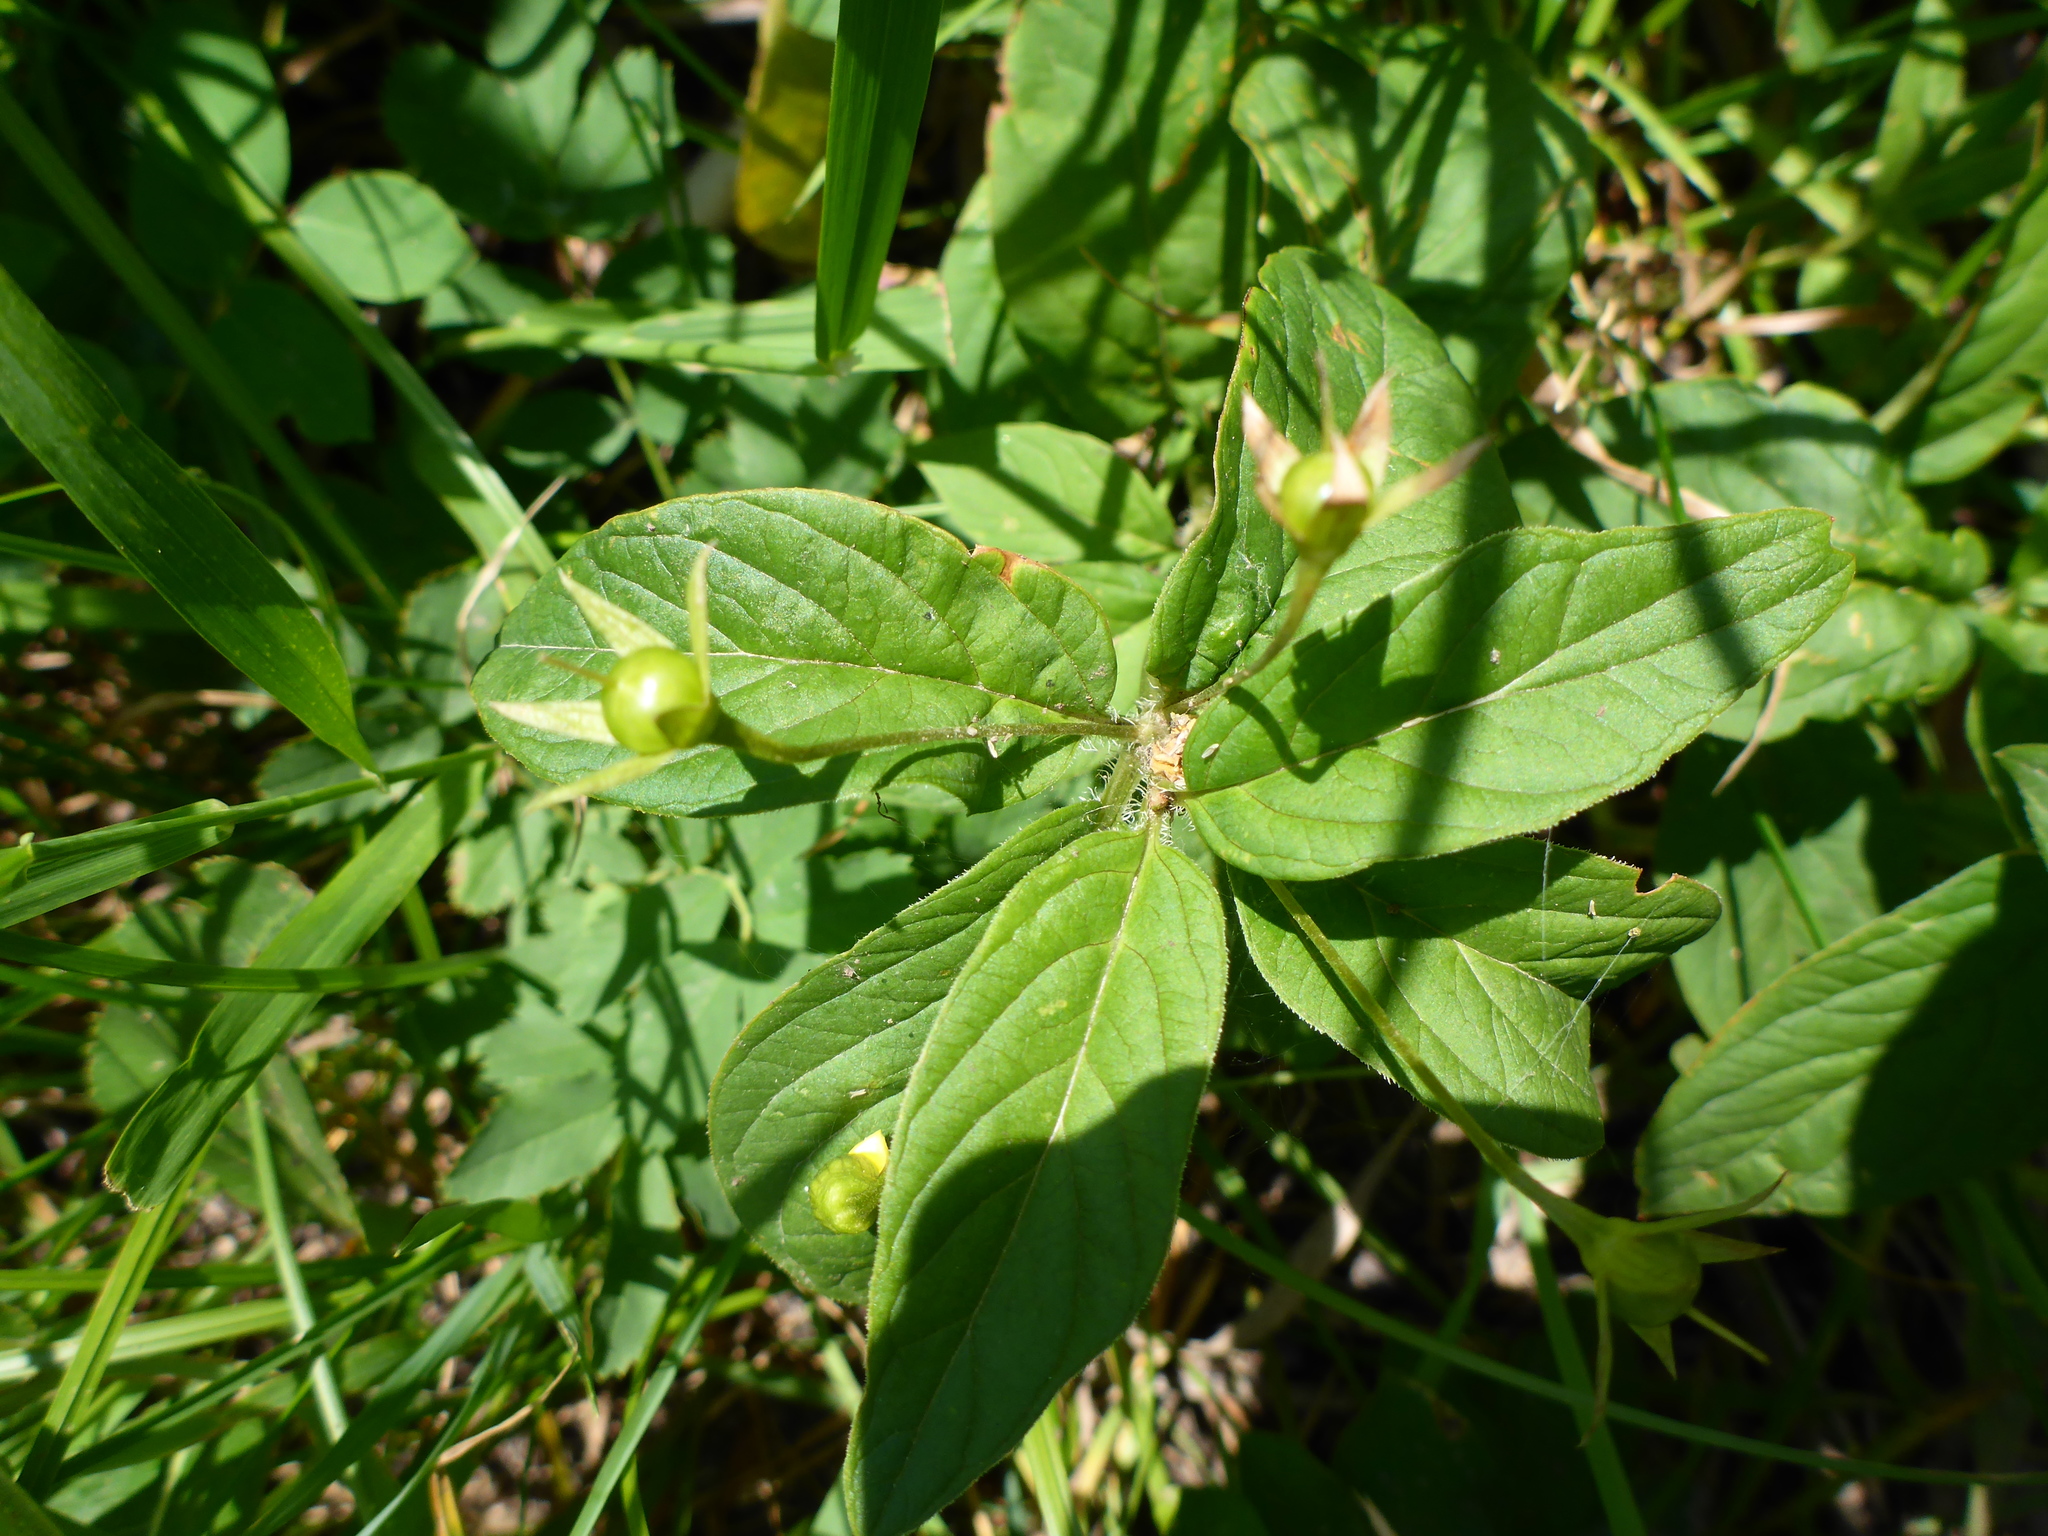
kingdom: Plantae
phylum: Tracheophyta
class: Magnoliopsida
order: Ericales
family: Primulaceae
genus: Lysimachia
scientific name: Lysimachia ciliata
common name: Fringed loosestrife
